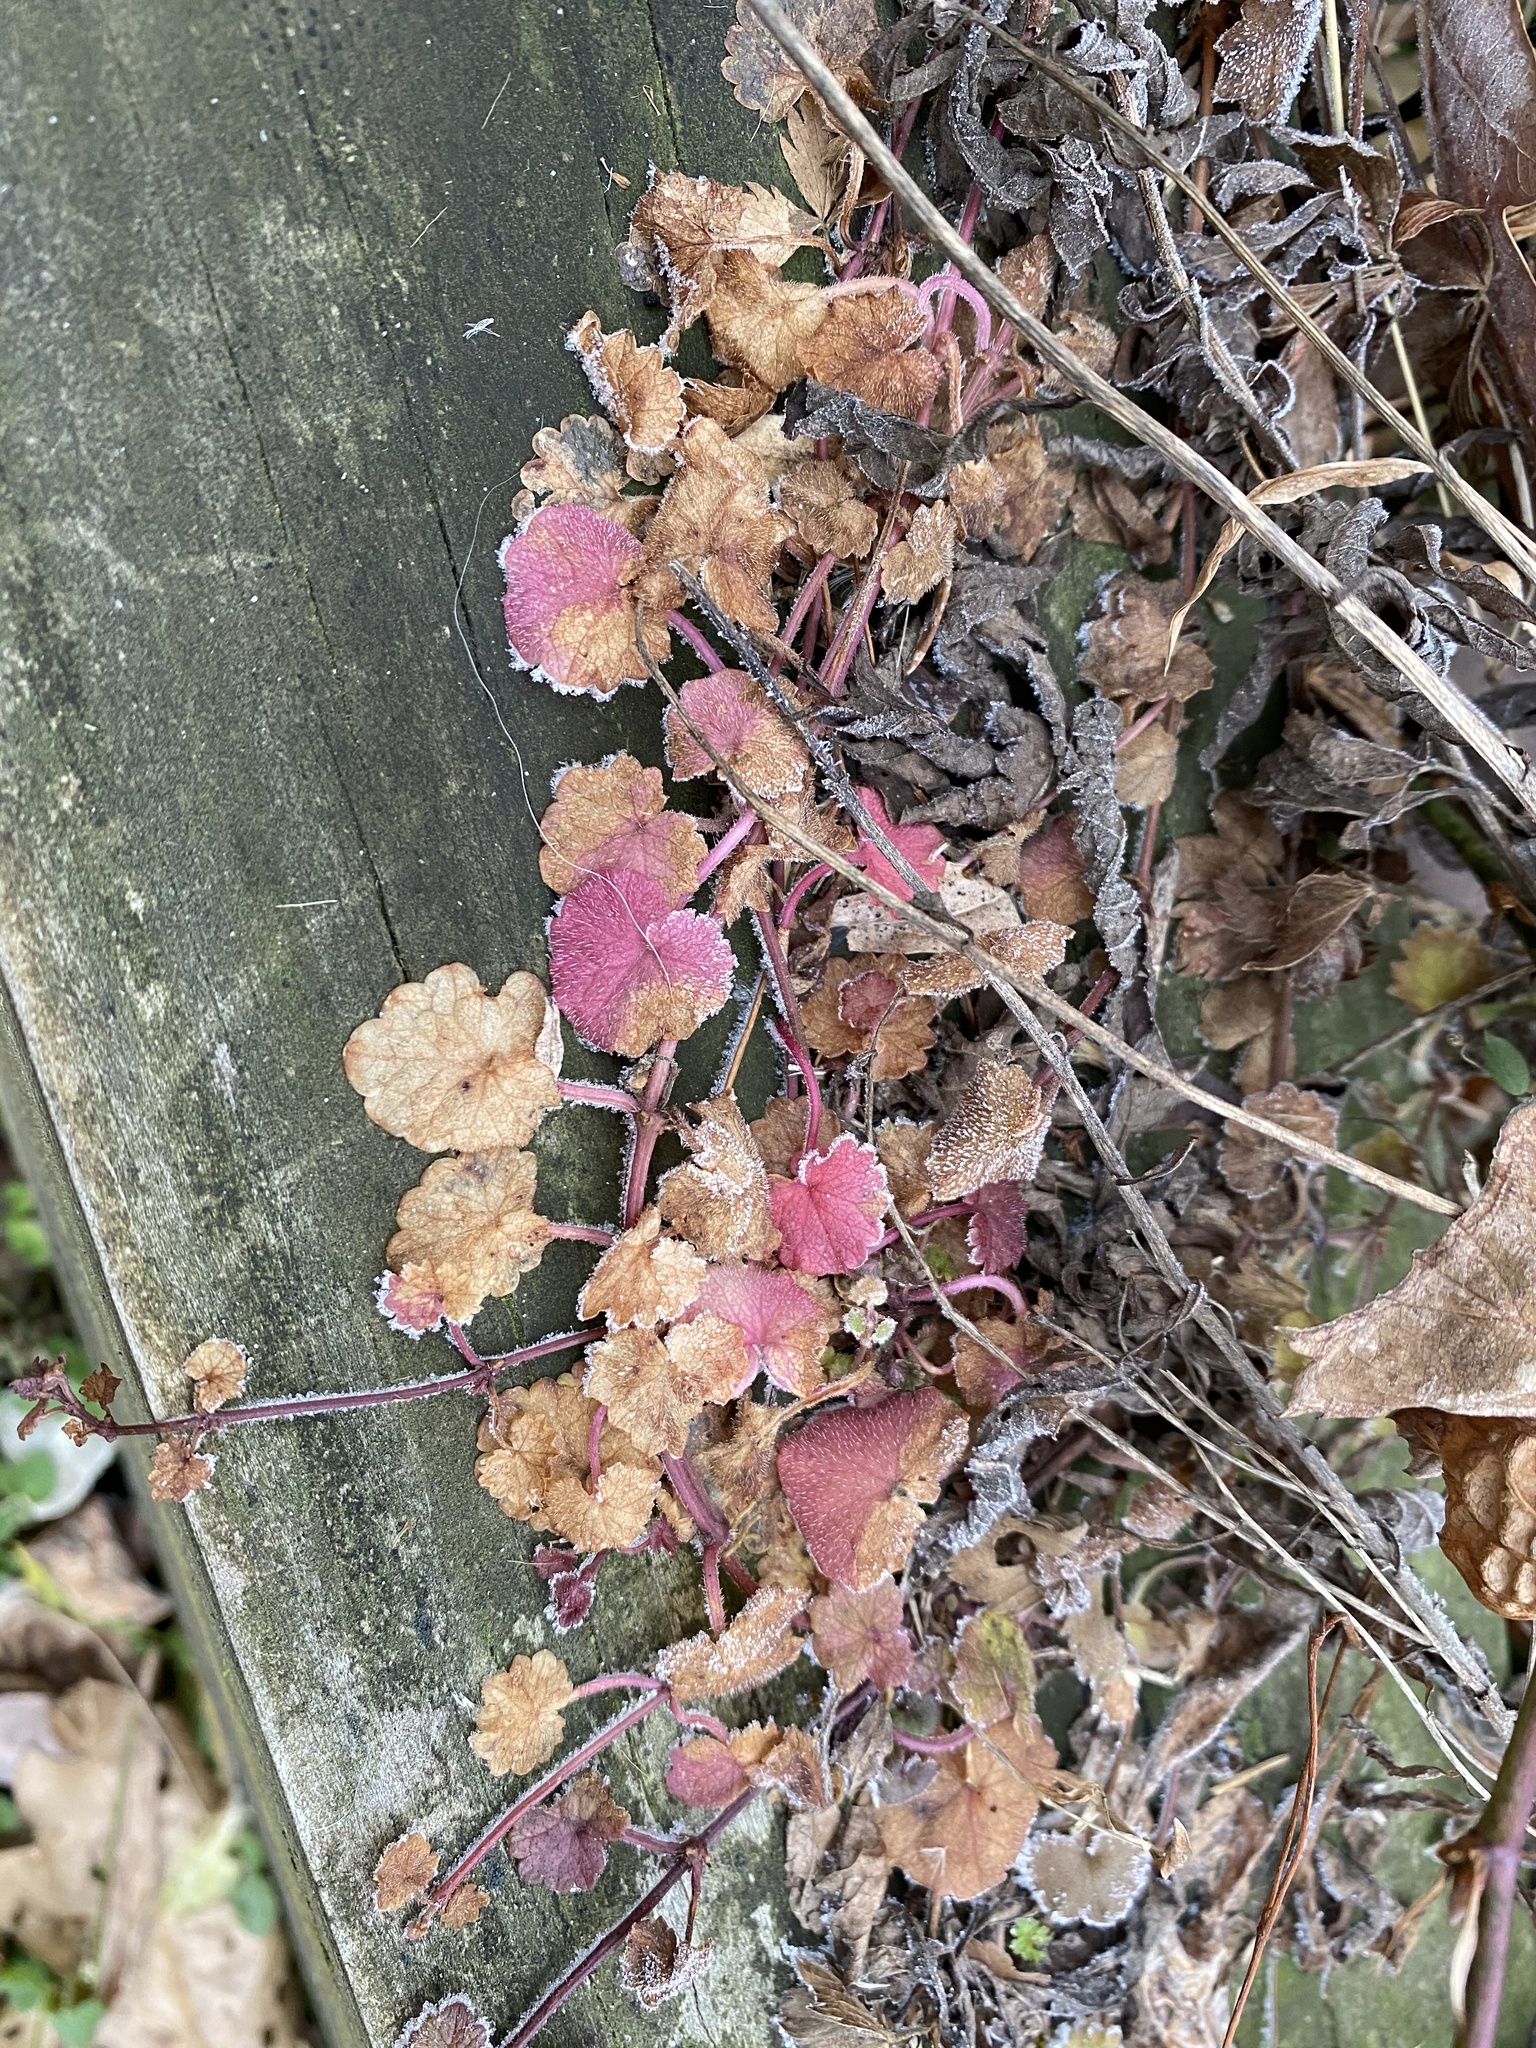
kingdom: Plantae
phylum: Tracheophyta
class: Magnoliopsida
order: Lamiales
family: Lamiaceae
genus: Glechoma
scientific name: Glechoma hederacea
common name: Ground ivy
